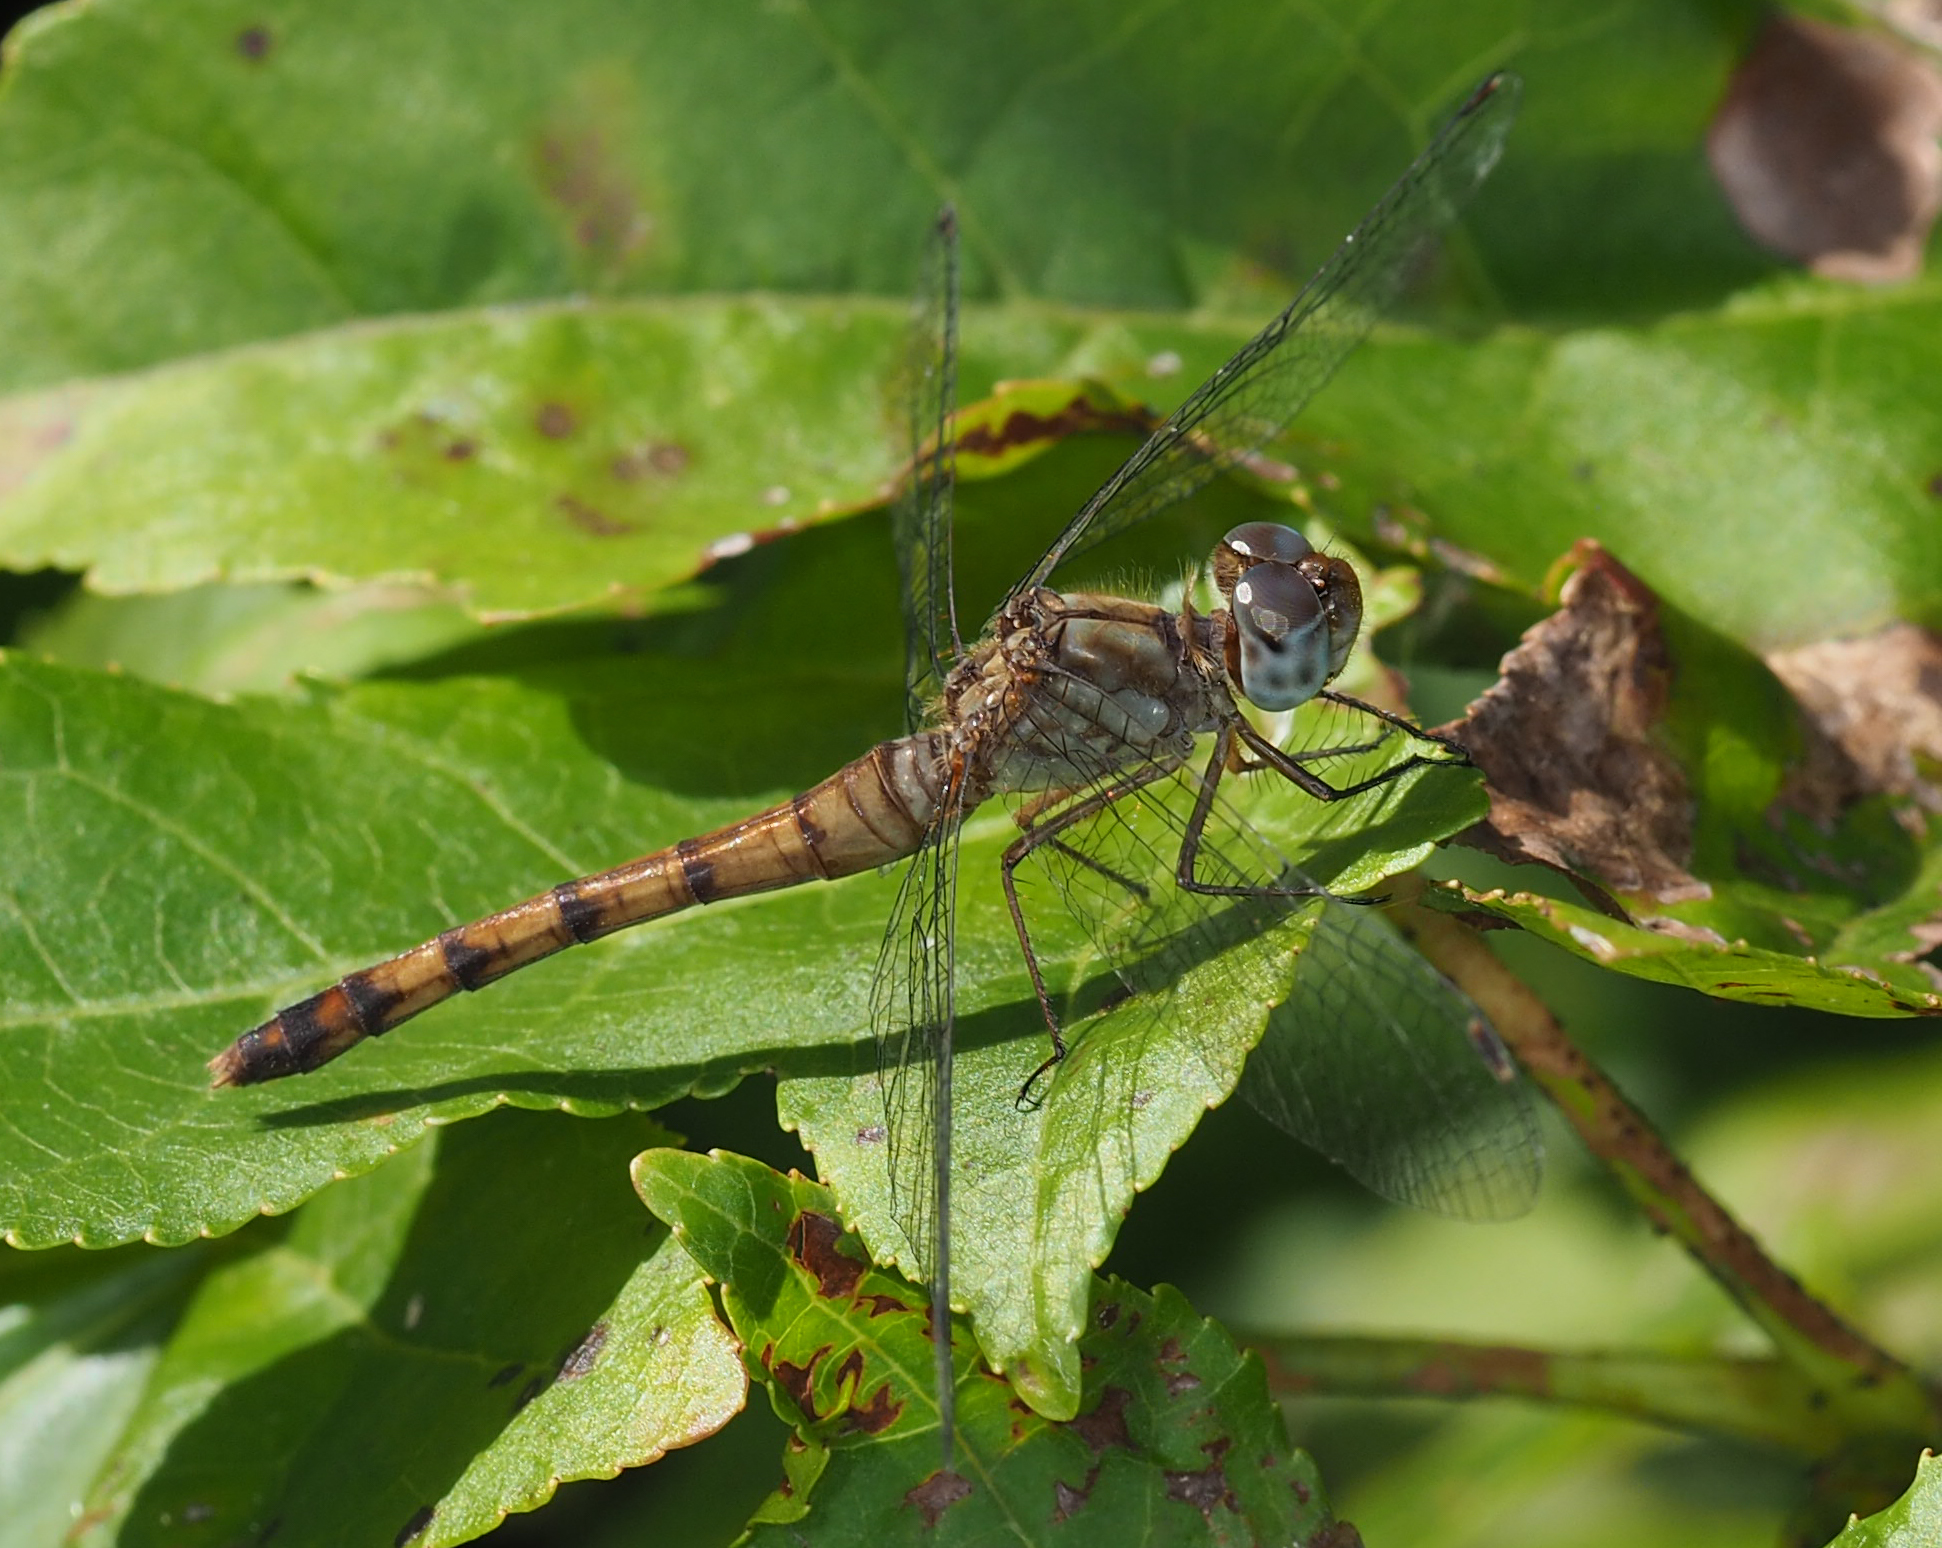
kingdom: Animalia
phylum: Arthropoda
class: Insecta
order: Odonata
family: Libellulidae
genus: Sympetrum
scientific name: Sympetrum ambiguum
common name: Blue-faced meadowhawk
